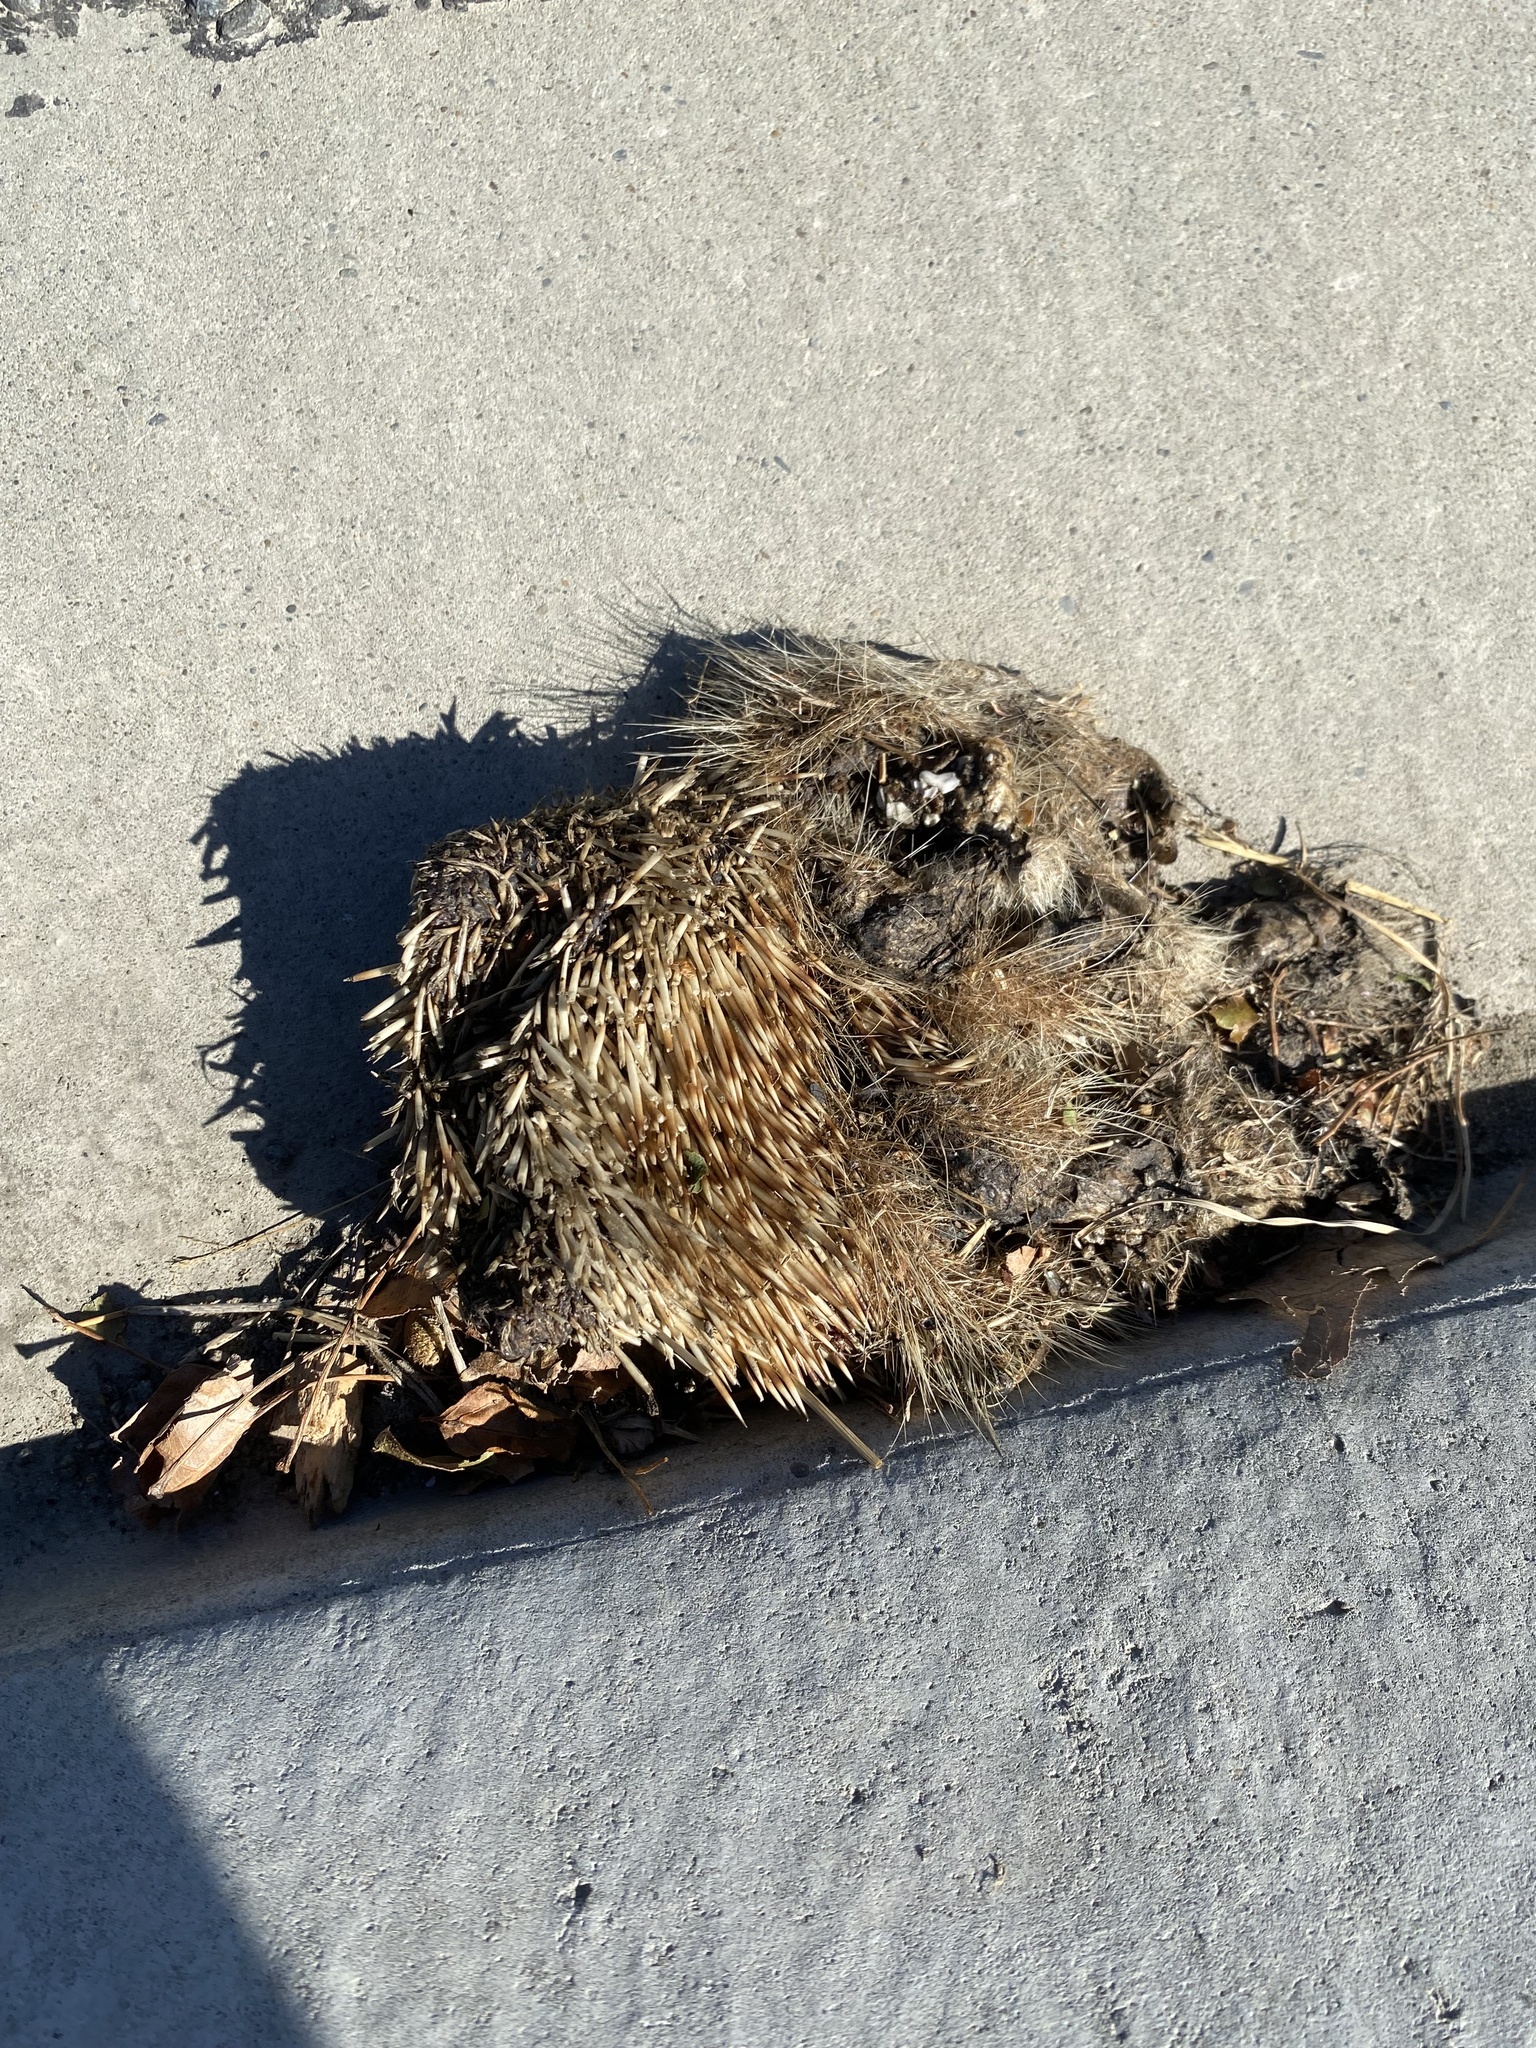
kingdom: Animalia
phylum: Chordata
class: Mammalia
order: Erinaceomorpha
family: Erinaceidae
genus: Erinaceus
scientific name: Erinaceus europaeus
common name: West european hedgehog
